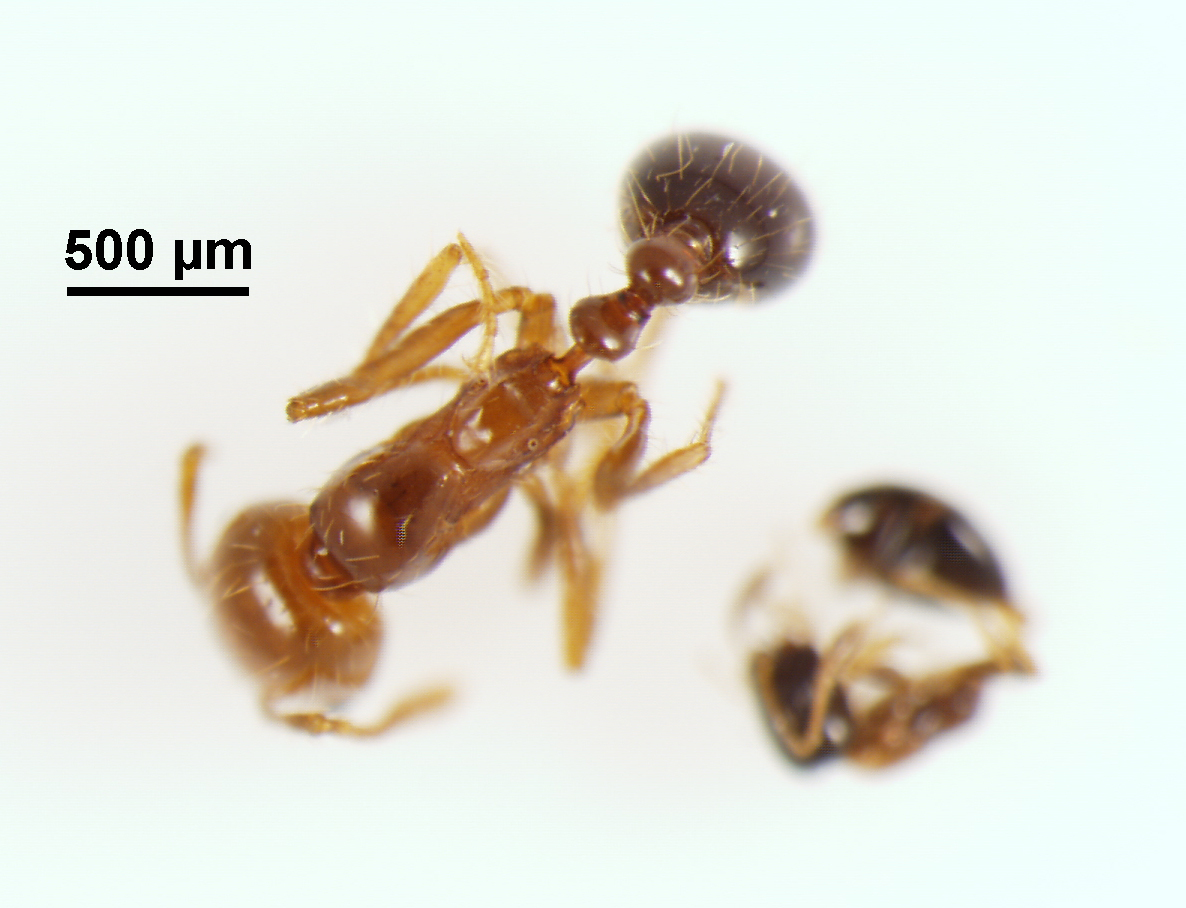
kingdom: Animalia
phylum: Arthropoda
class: Insecta
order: Hymenoptera
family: Formicidae
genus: Solenopsis
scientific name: Solenopsis geminata
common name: Tropical fire ant
